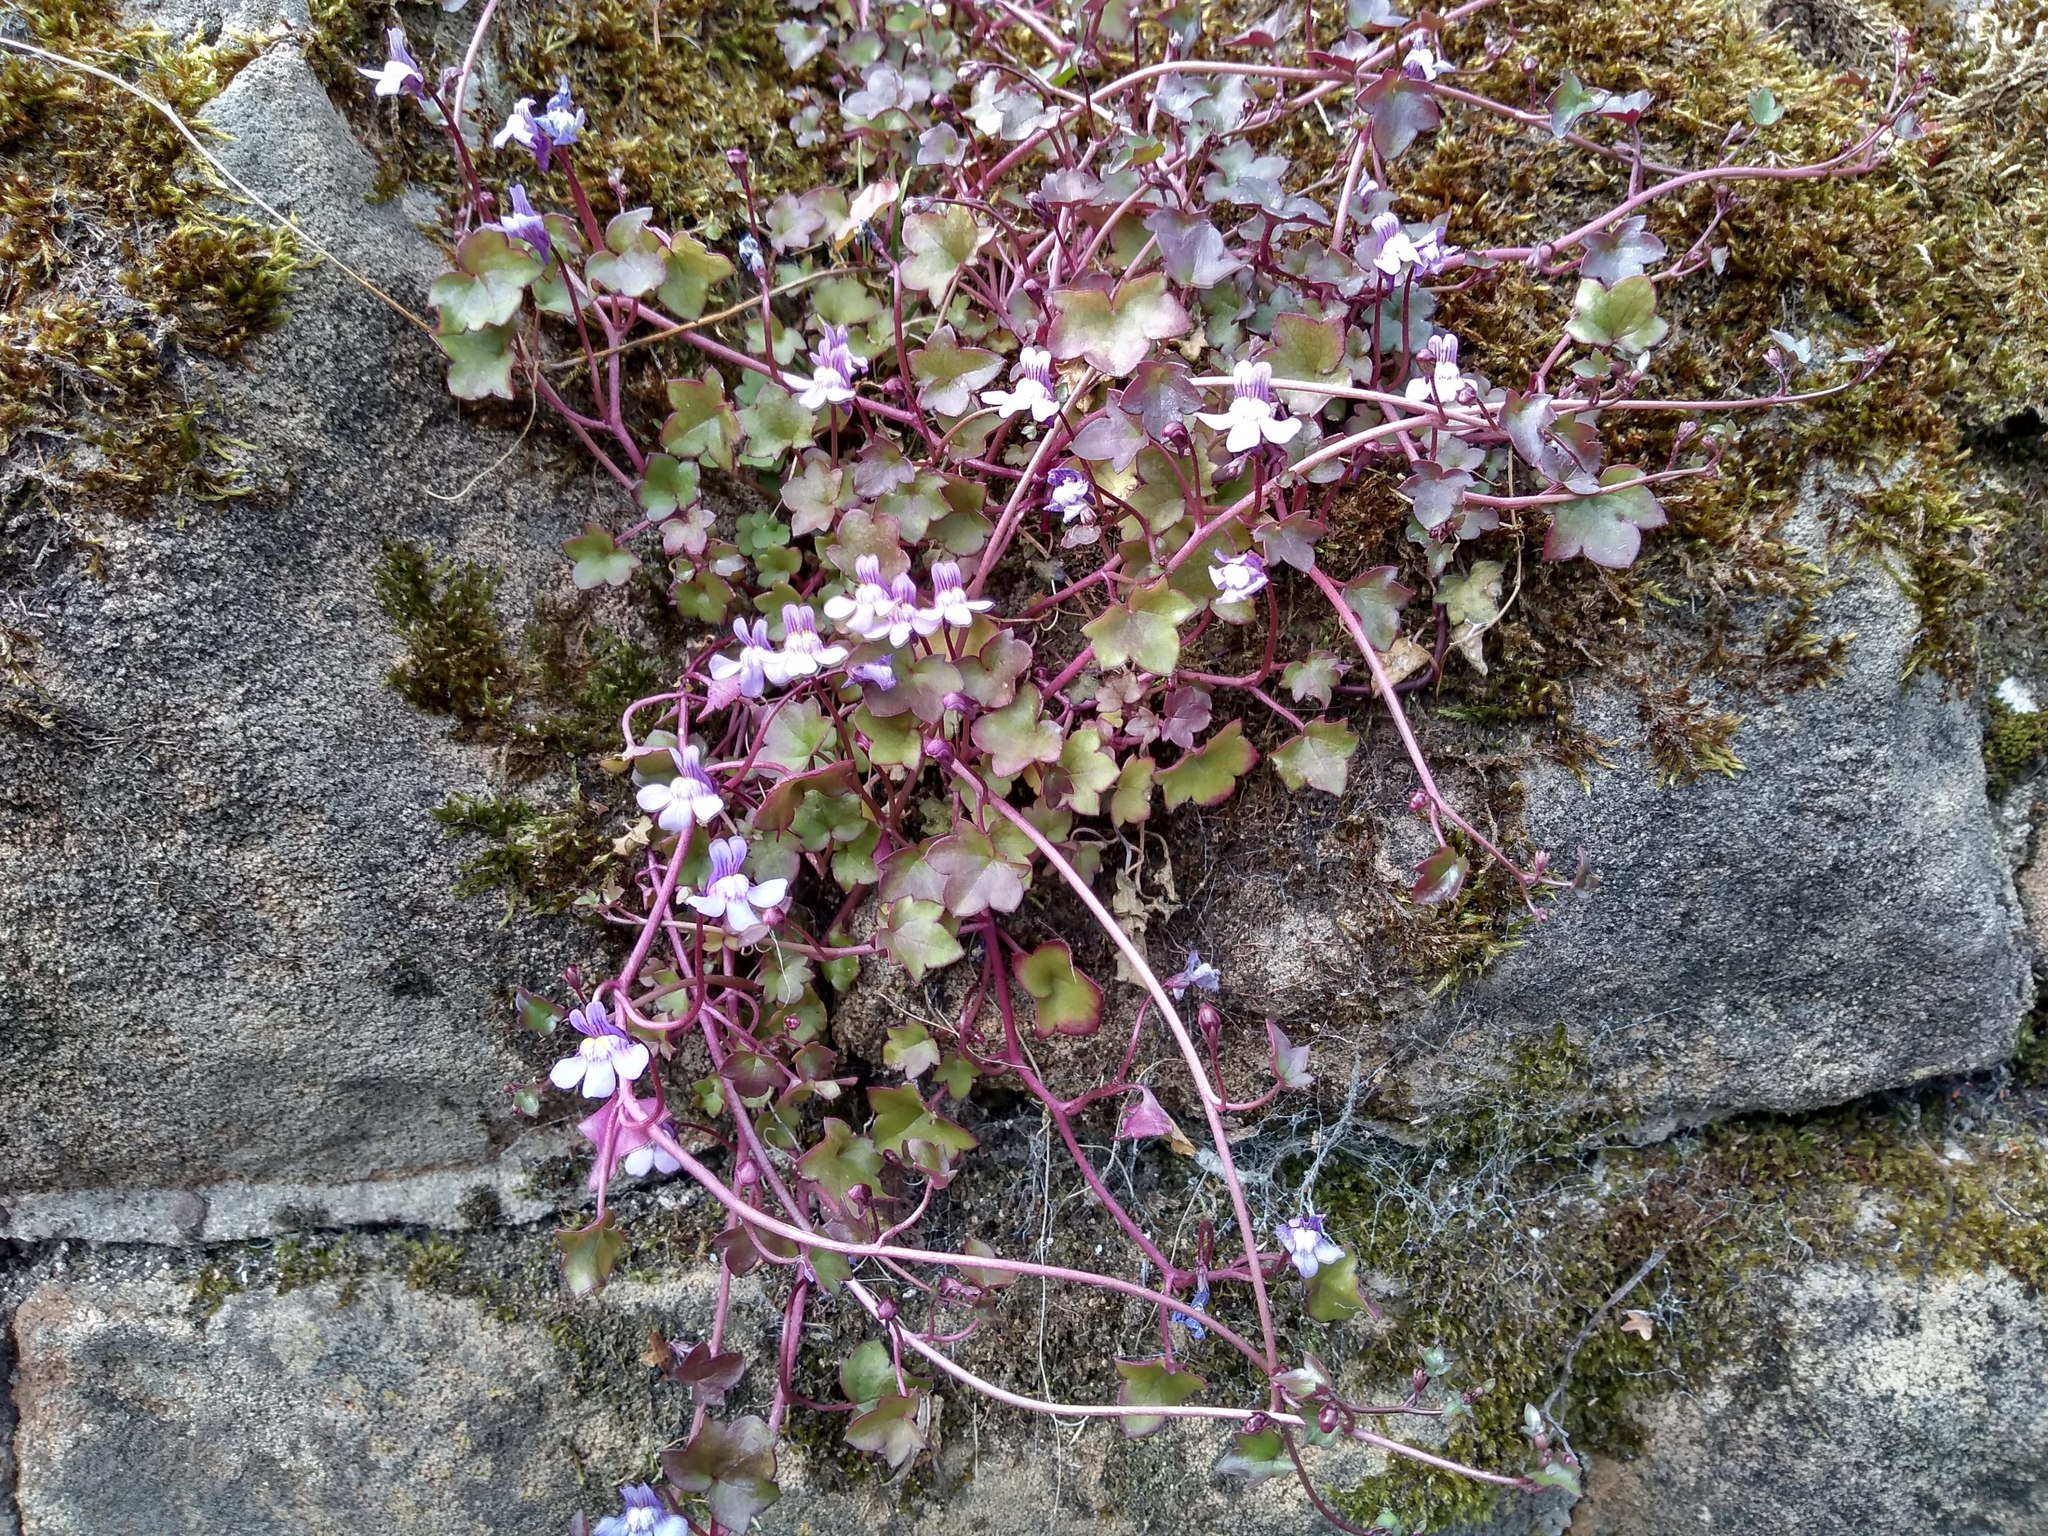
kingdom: Plantae
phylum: Tracheophyta
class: Magnoliopsida
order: Lamiales
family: Plantaginaceae
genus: Cymbalaria
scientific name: Cymbalaria muralis
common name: Ivy-leaved toadflax
